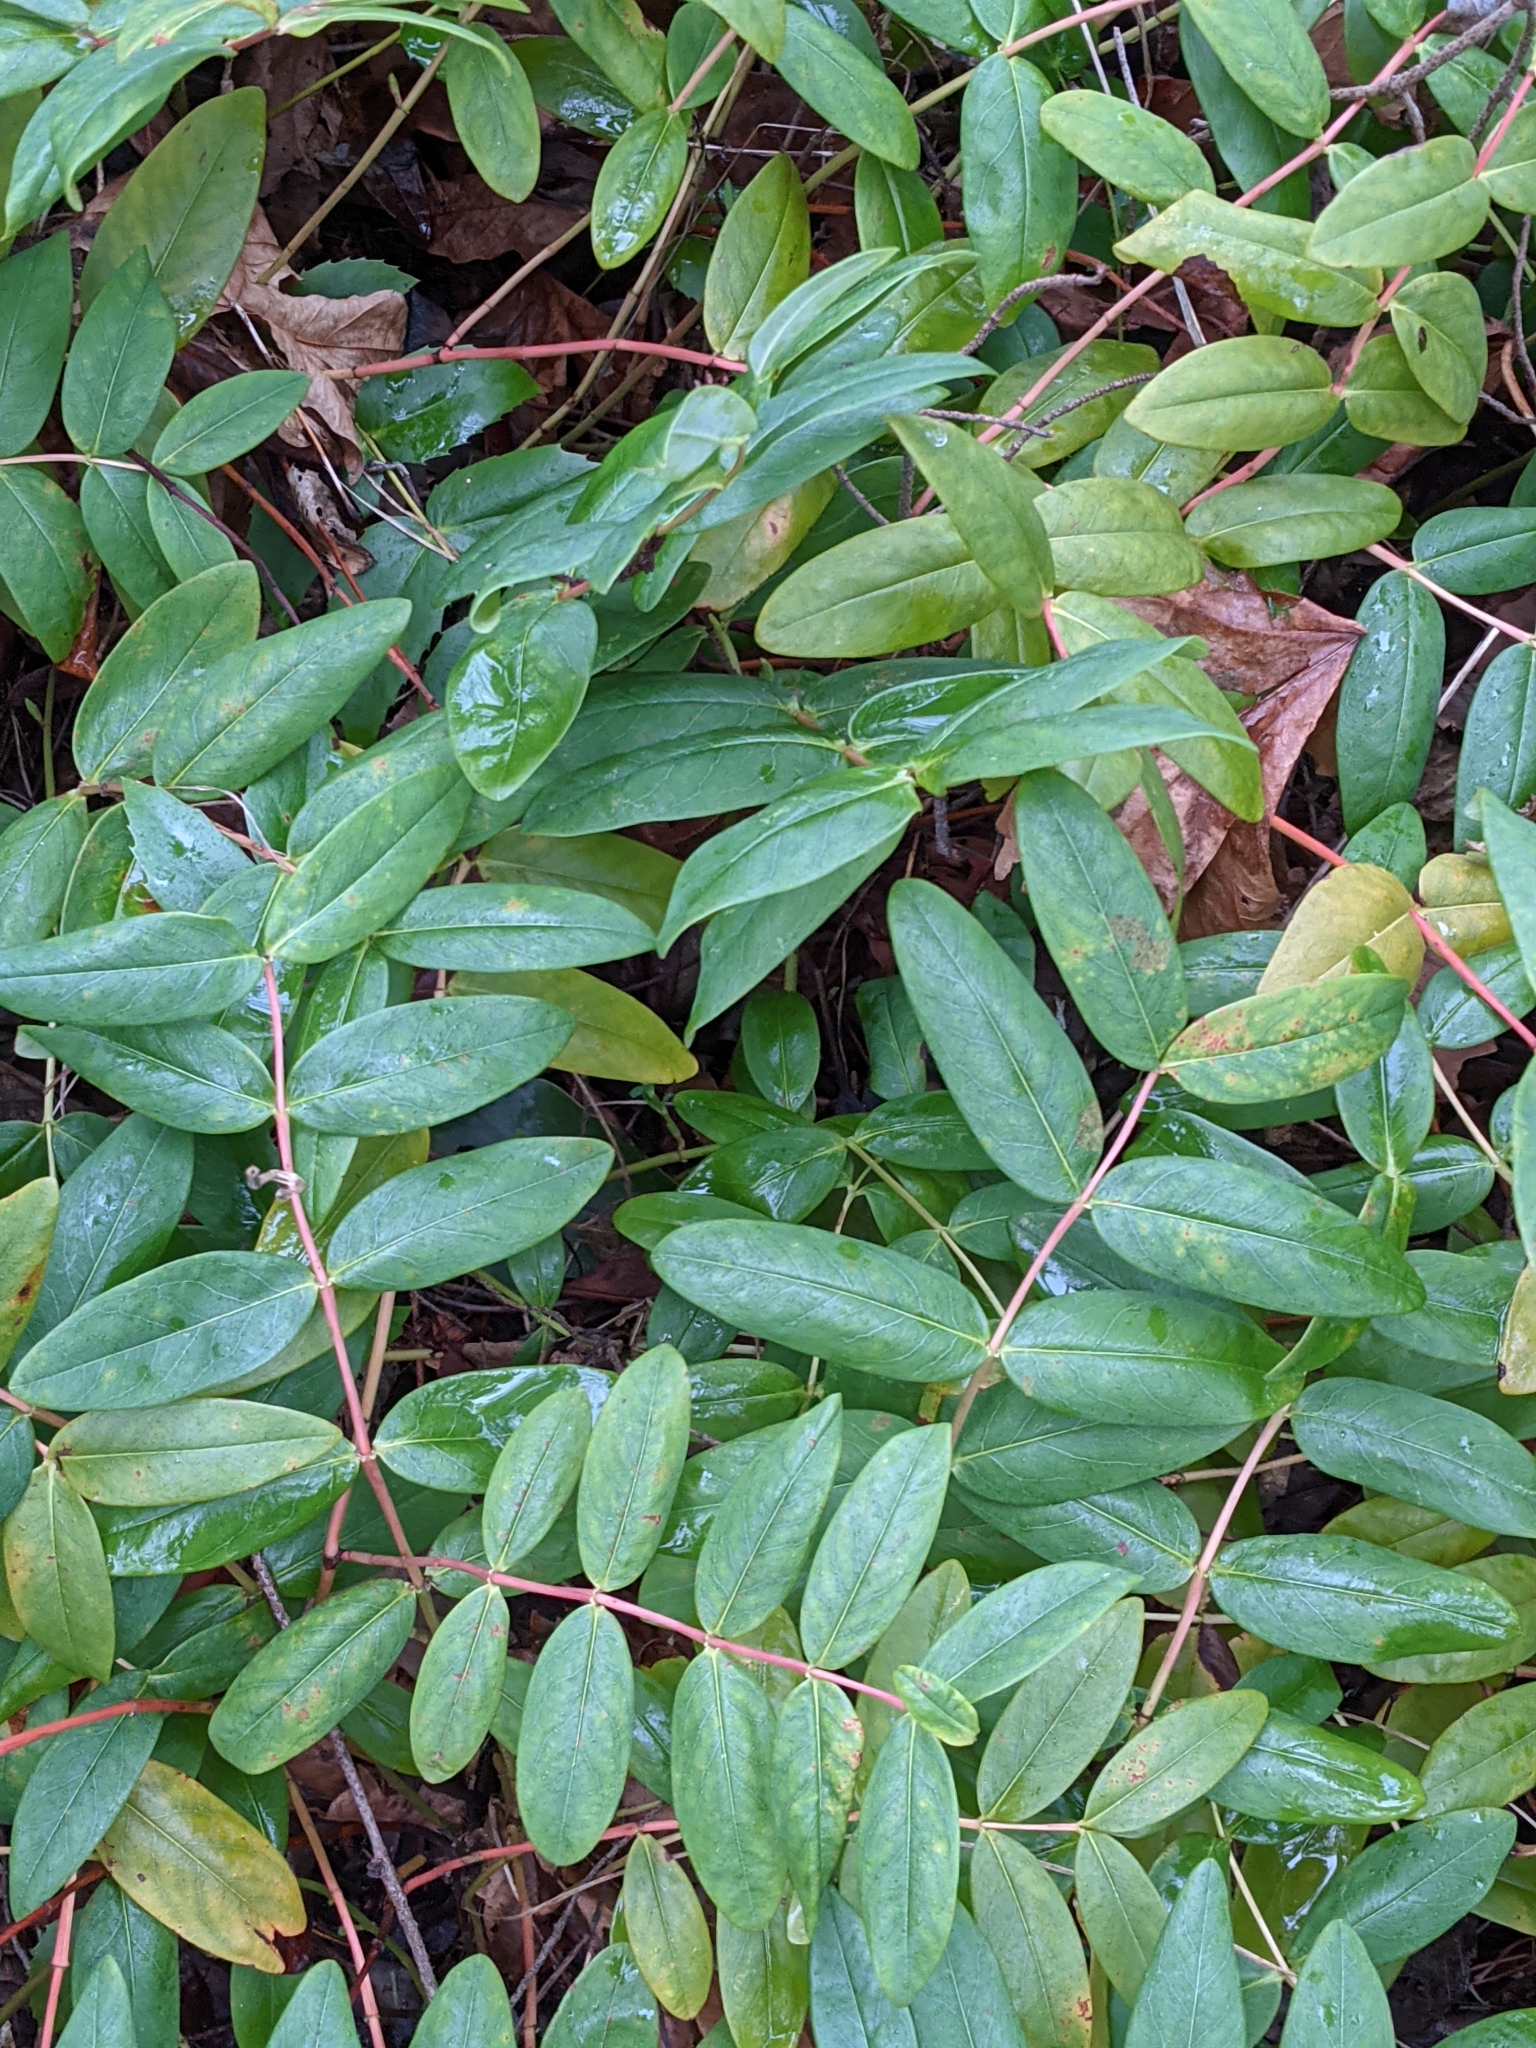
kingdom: Plantae
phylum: Tracheophyta
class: Magnoliopsida
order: Malpighiales
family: Hypericaceae
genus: Hypericum
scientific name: Hypericum calycinum
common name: Rose-of-sharon
